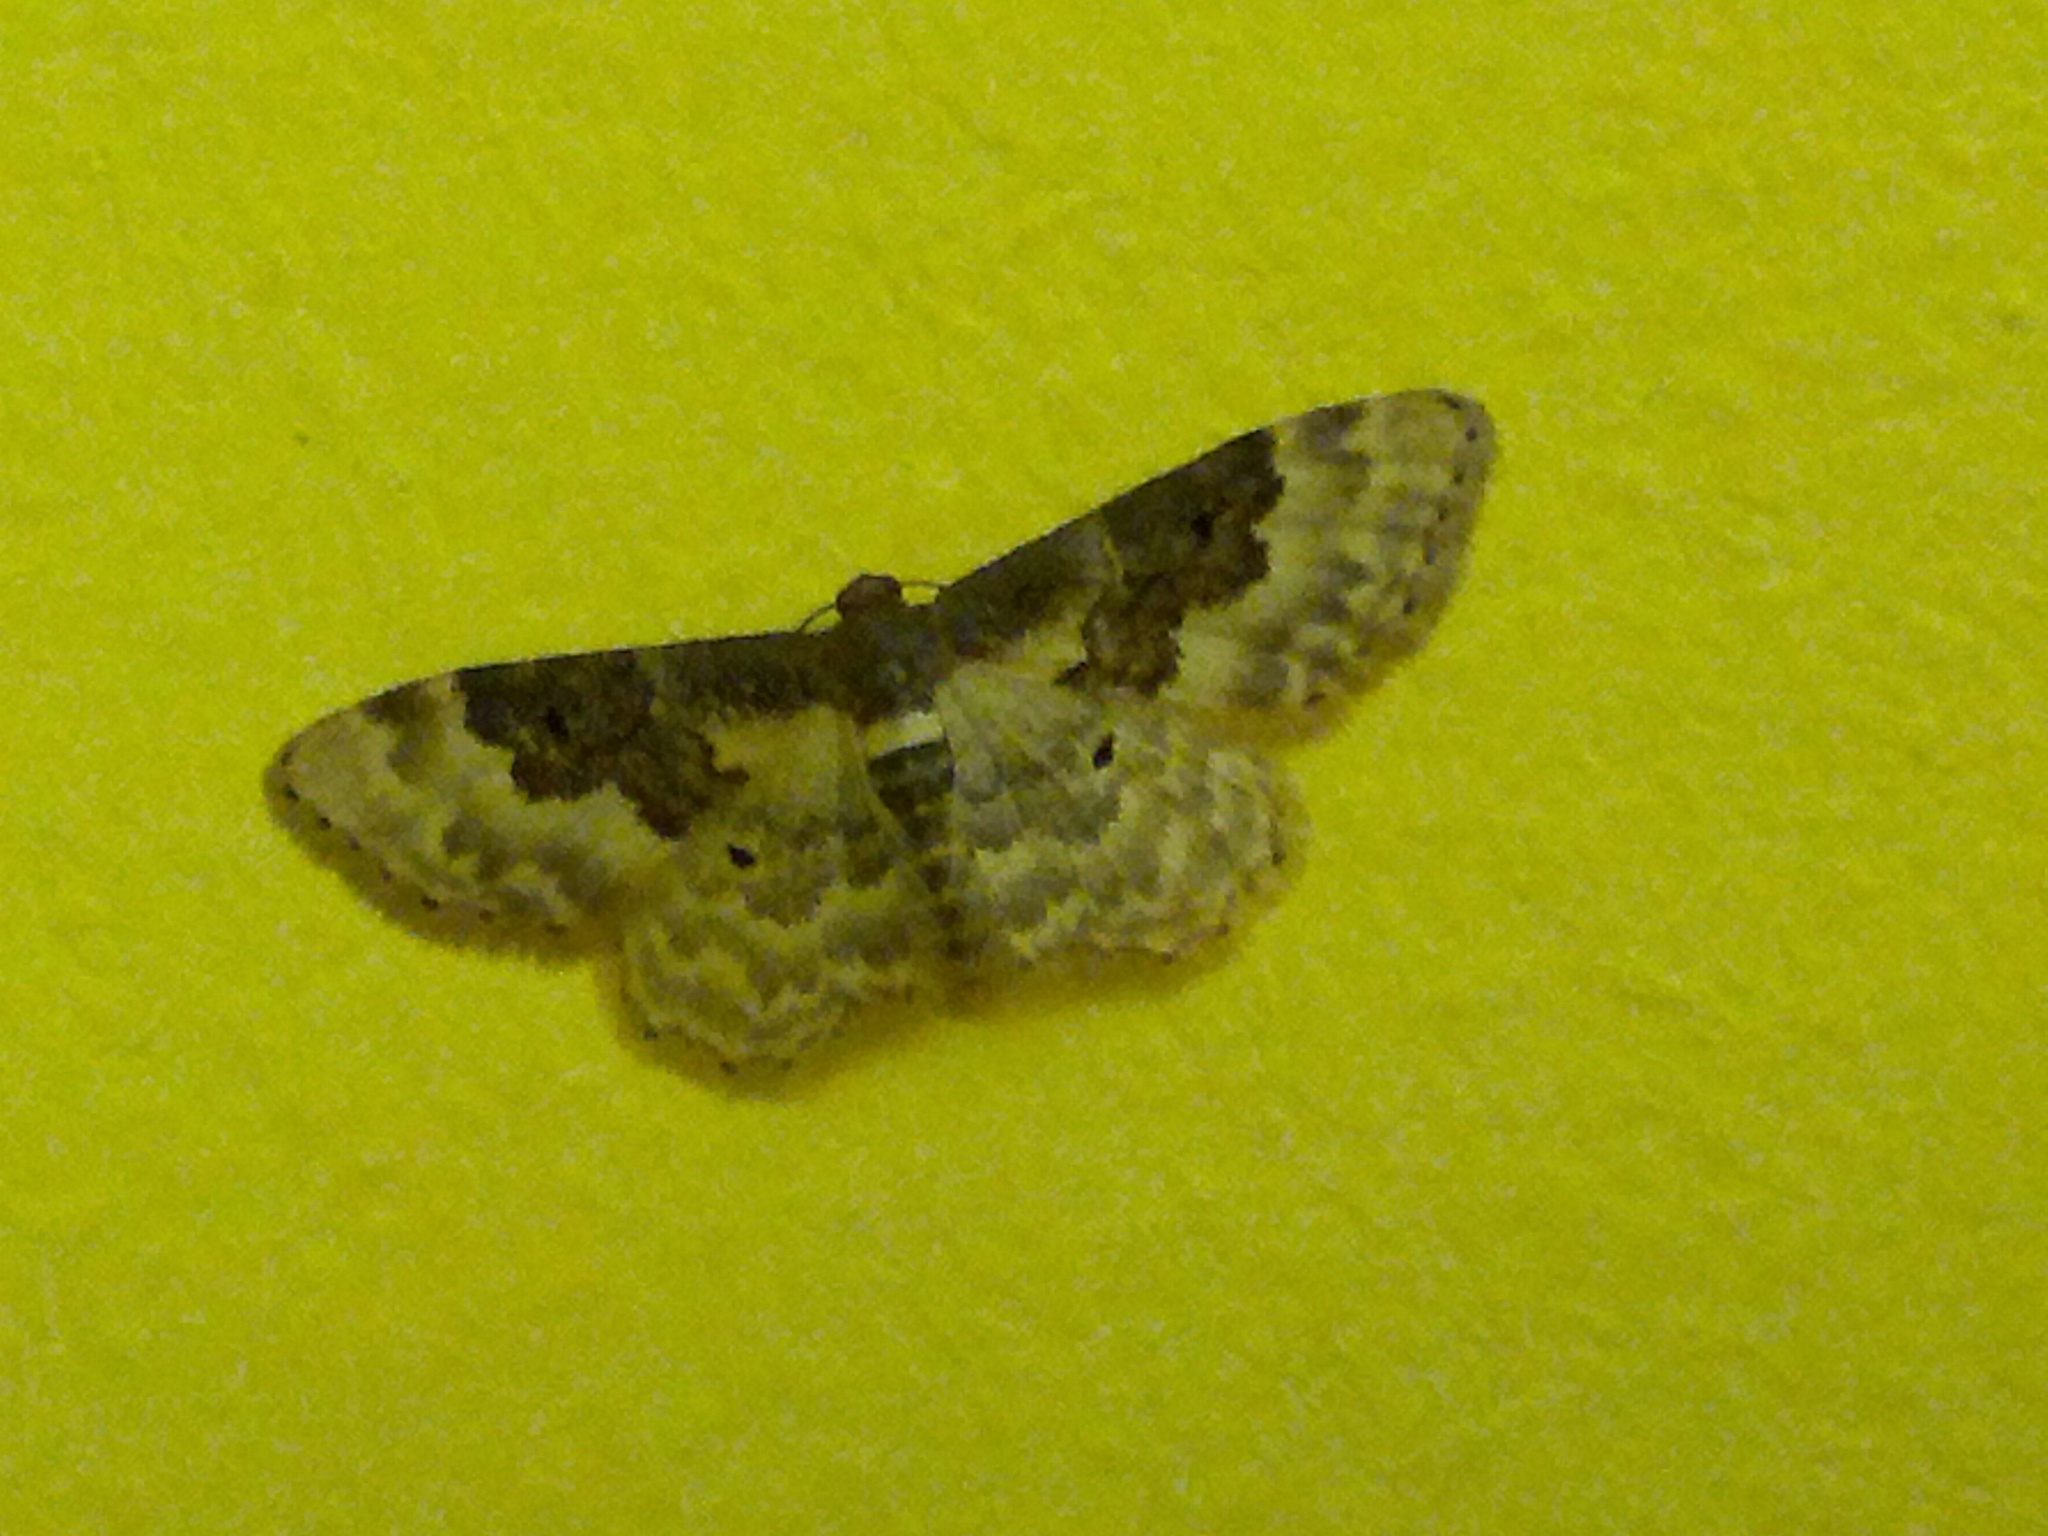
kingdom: Animalia
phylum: Arthropoda
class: Insecta
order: Lepidoptera
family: Geometridae
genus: Idaea
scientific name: Idaea rusticata
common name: Least carpet
